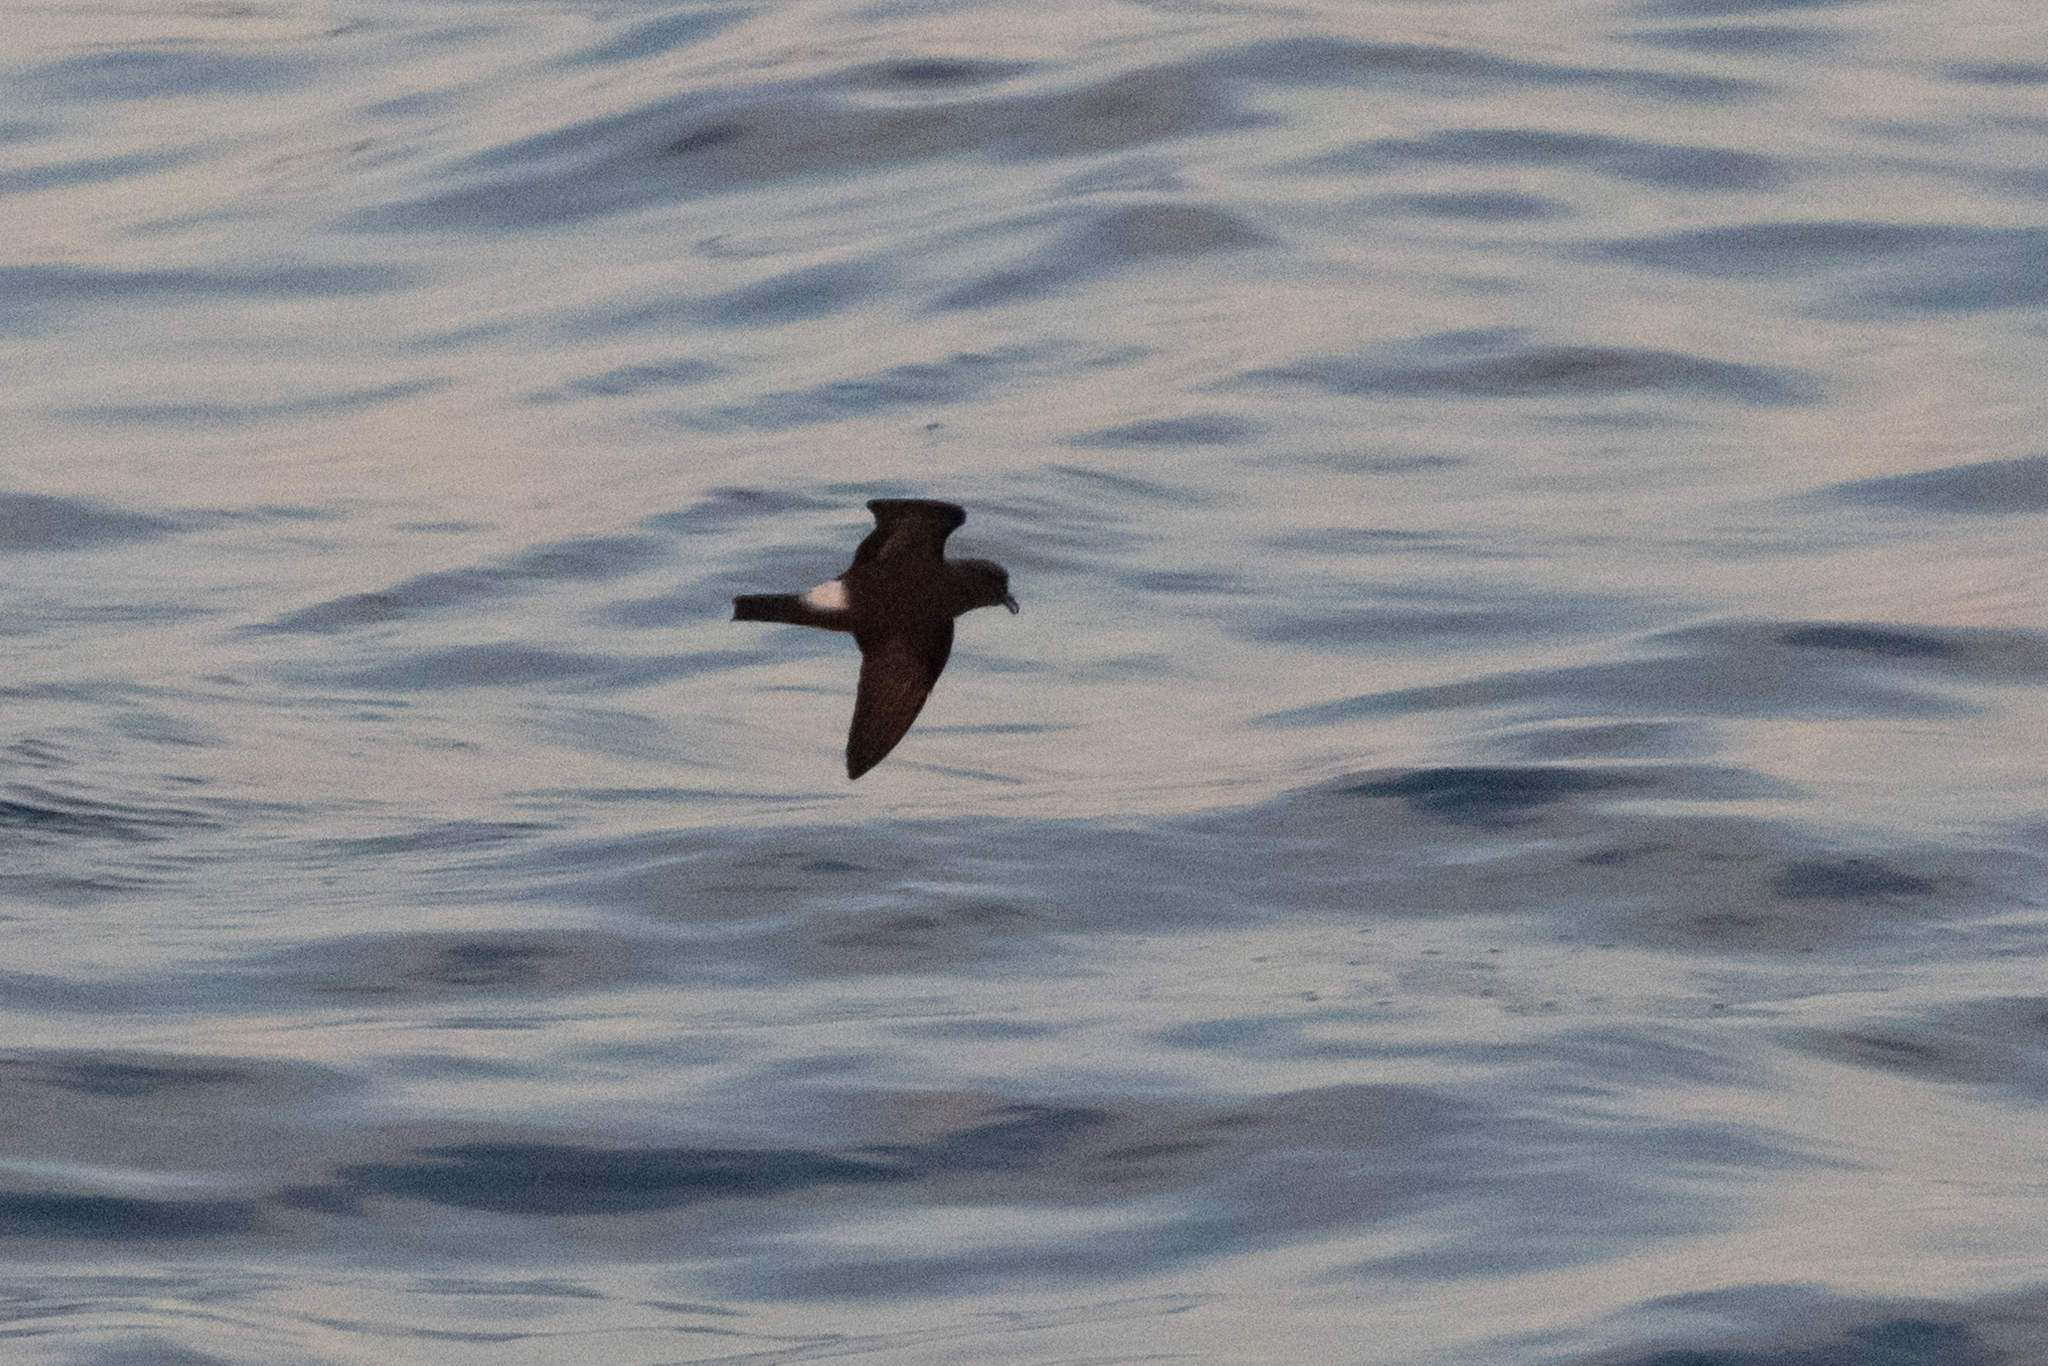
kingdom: Animalia
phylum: Chordata
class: Aves
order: Procellariiformes
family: Hydrobatidae
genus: Oceanodroma
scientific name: Oceanodroma castro
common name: Band-rumped storm-petrel
